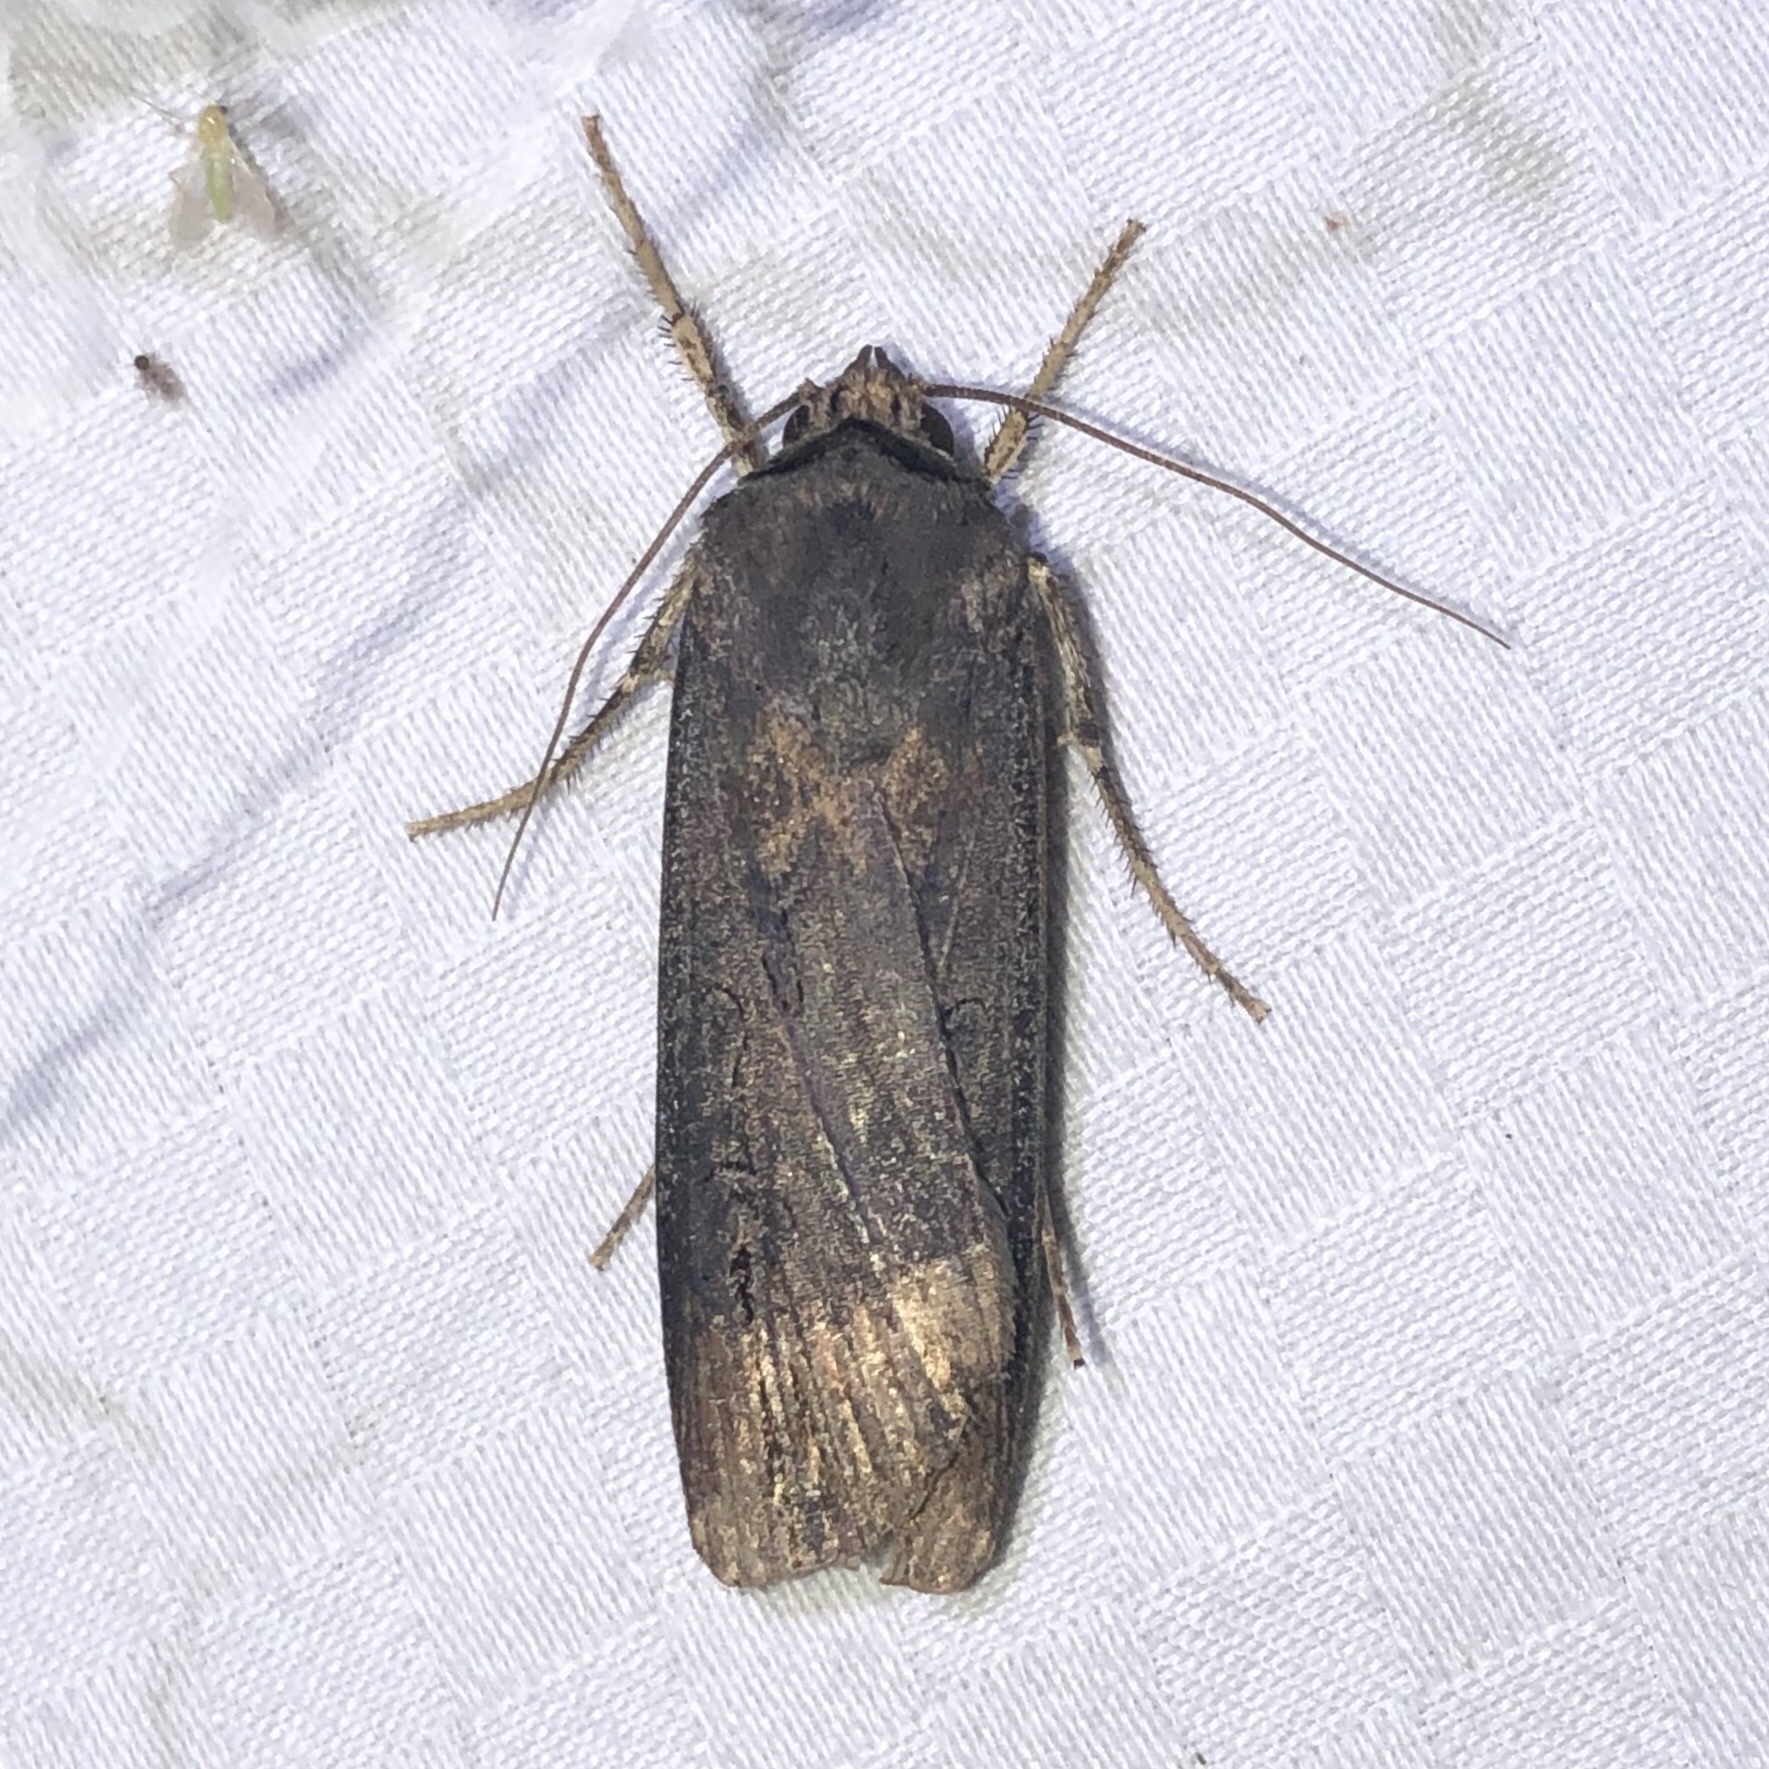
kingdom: Animalia
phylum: Arthropoda
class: Insecta
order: Lepidoptera
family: Noctuidae
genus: Agrotis
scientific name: Agrotis ipsilon
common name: Dark sword-grass
